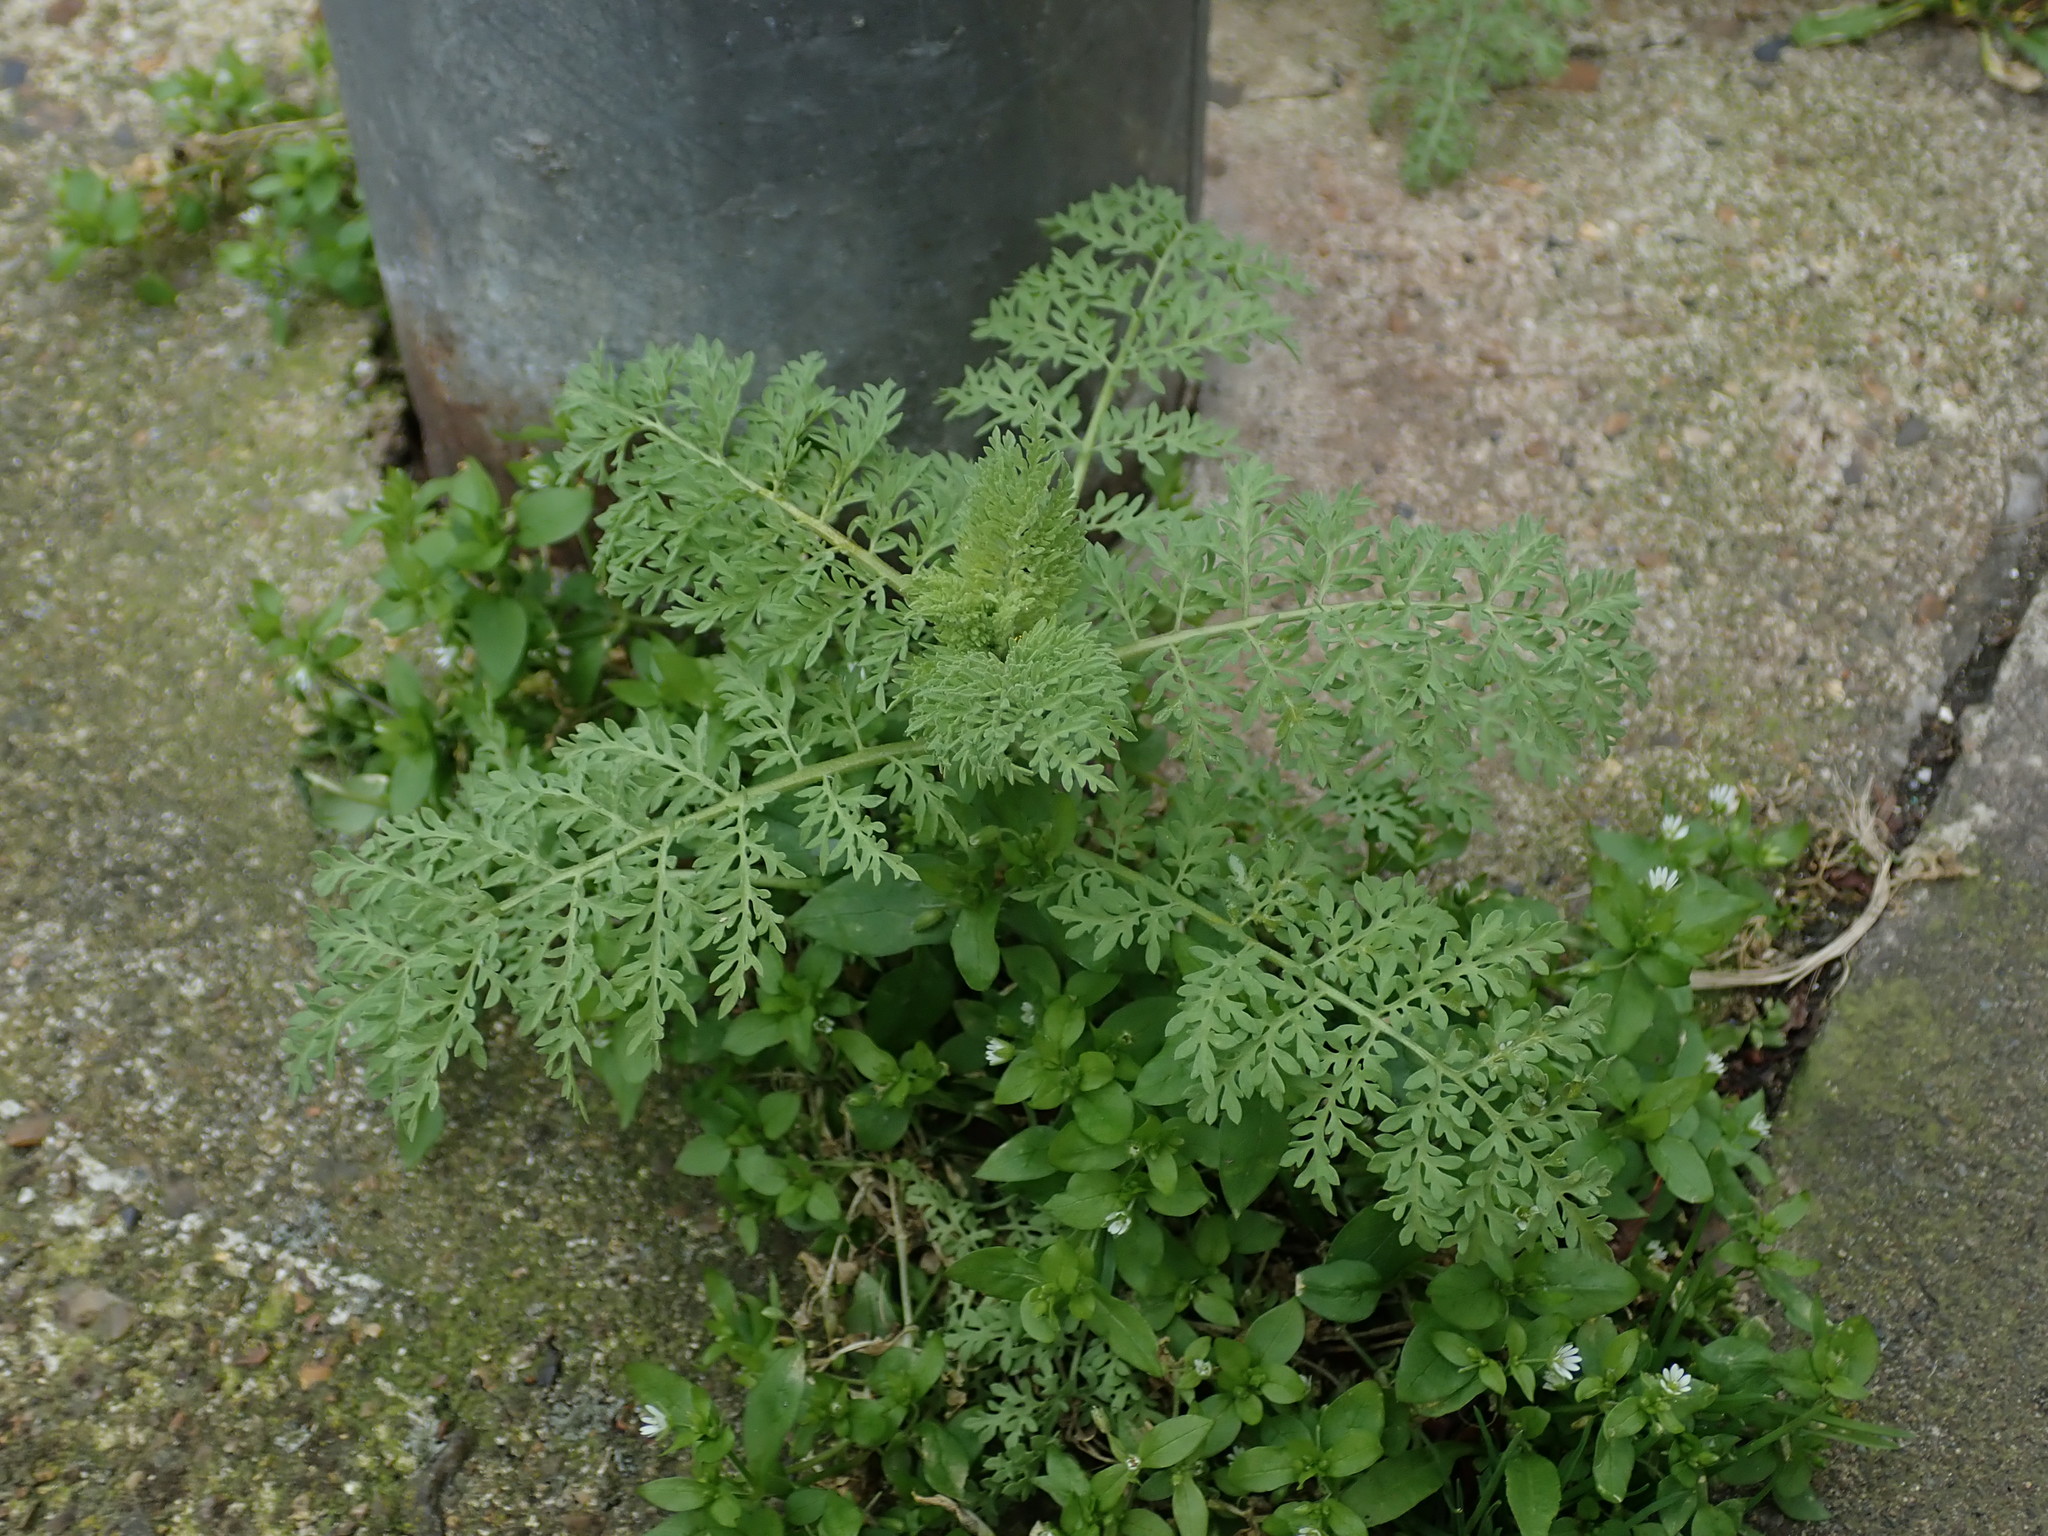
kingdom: Plantae
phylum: Tracheophyta
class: Magnoliopsida
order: Brassicales
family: Brassicaceae
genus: Descurainia
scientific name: Descurainia sophia
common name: Flixweed
